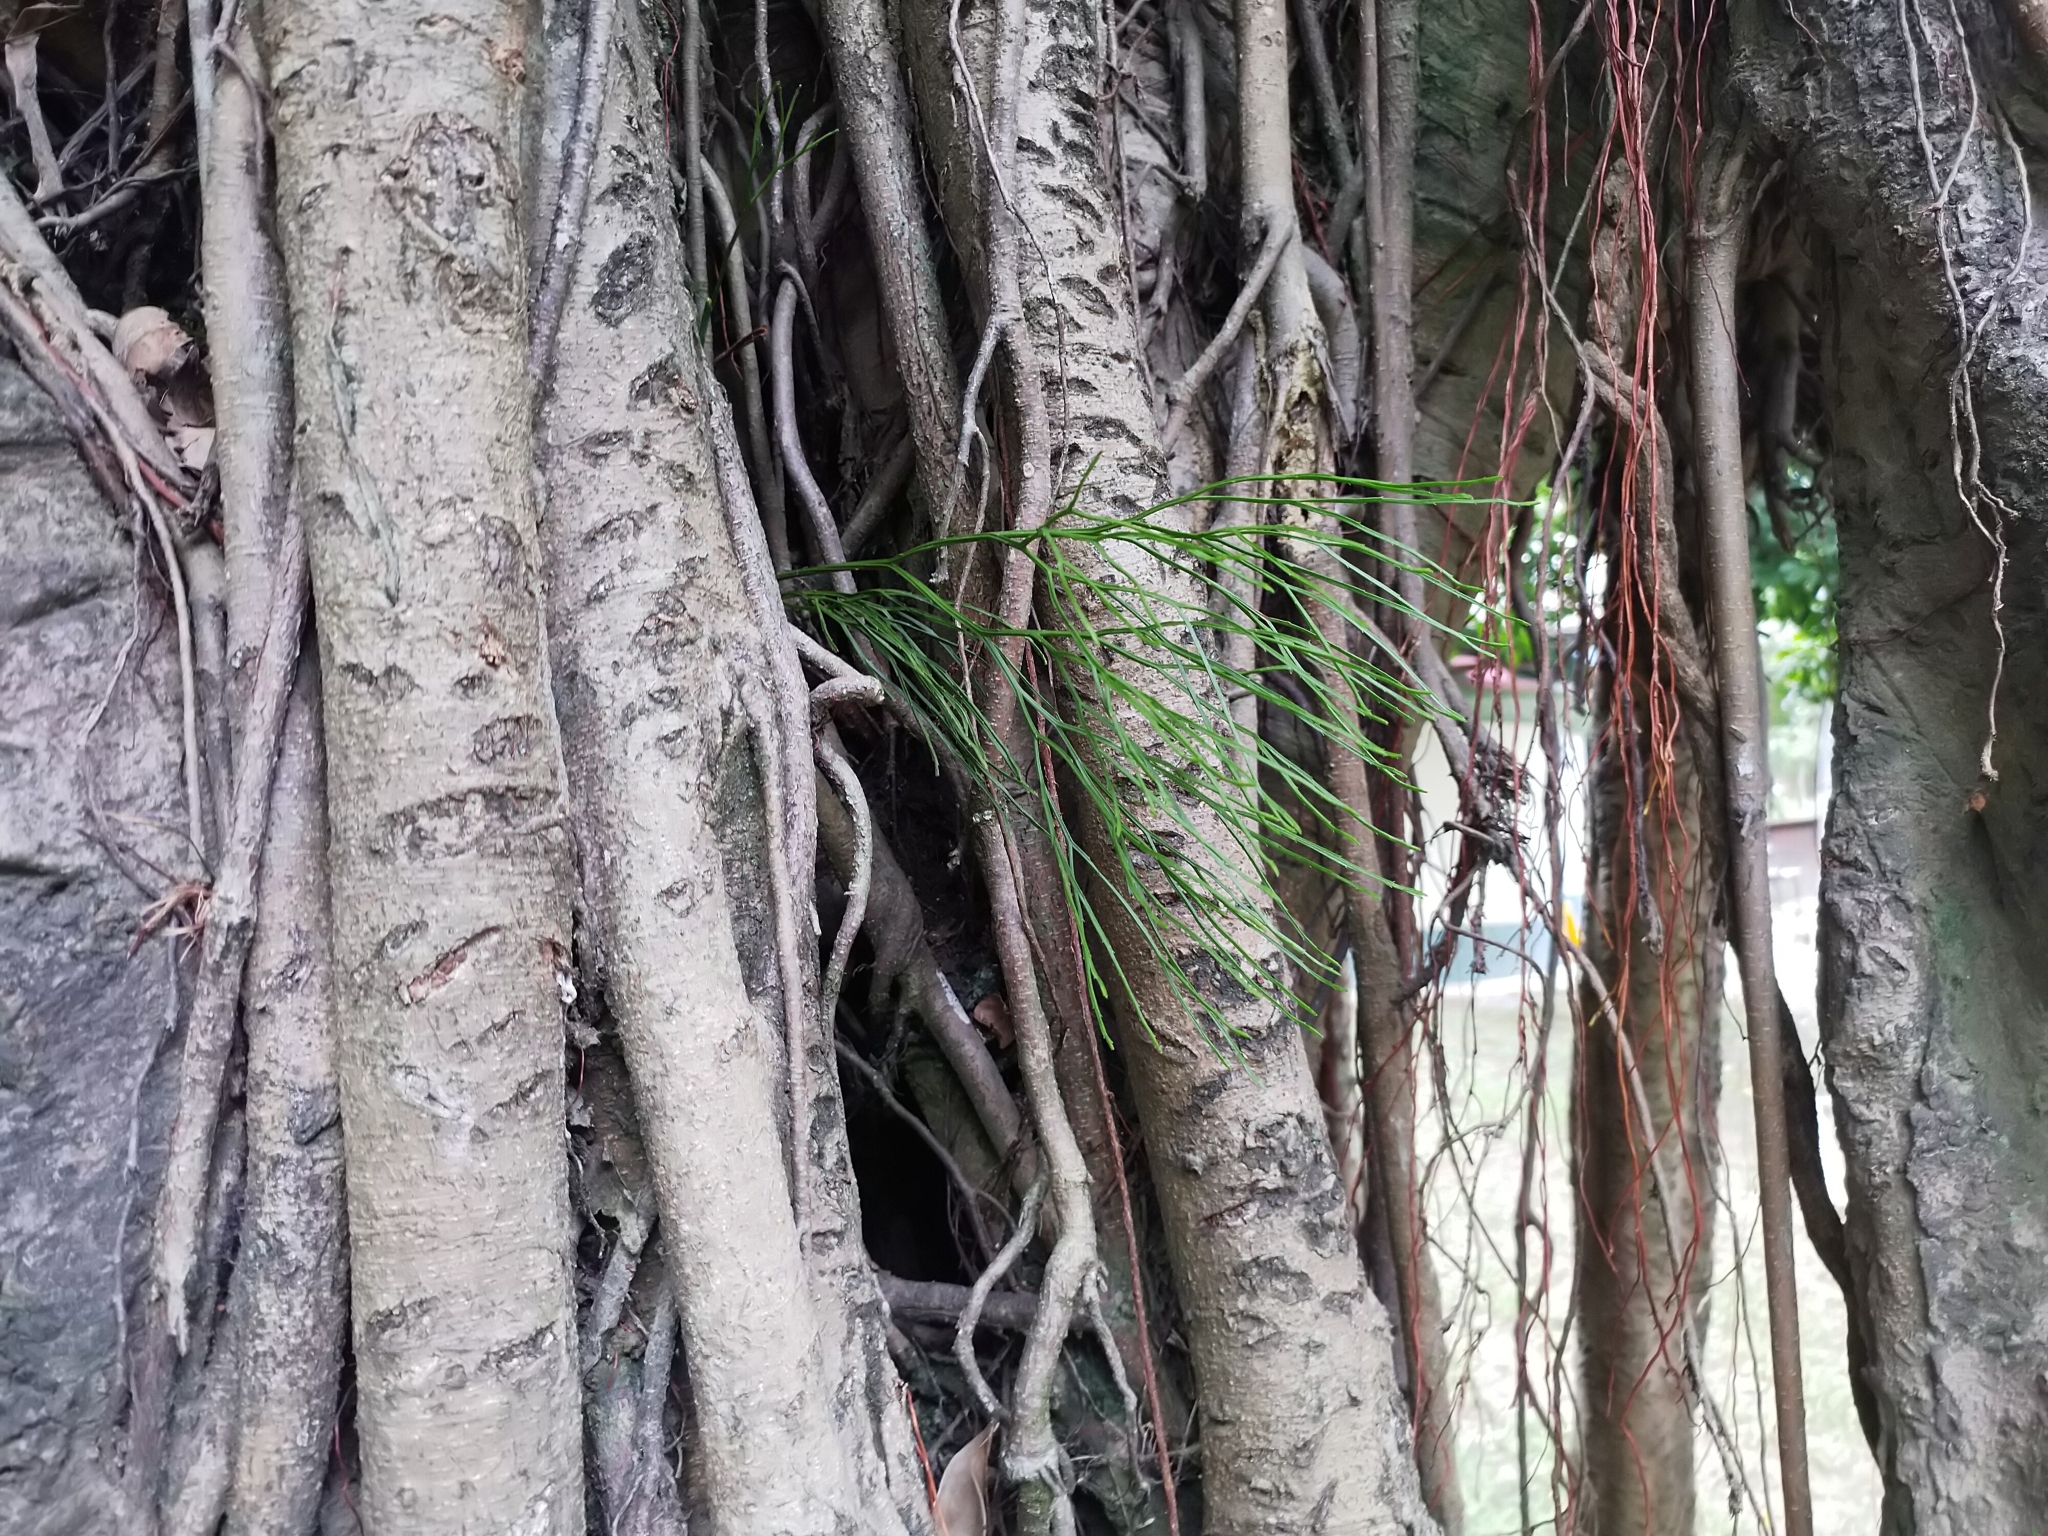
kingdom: Plantae
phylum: Tracheophyta
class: Polypodiopsida
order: Psilotales
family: Psilotaceae
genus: Psilotum
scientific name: Psilotum nudum
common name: Skeleton fork fern
